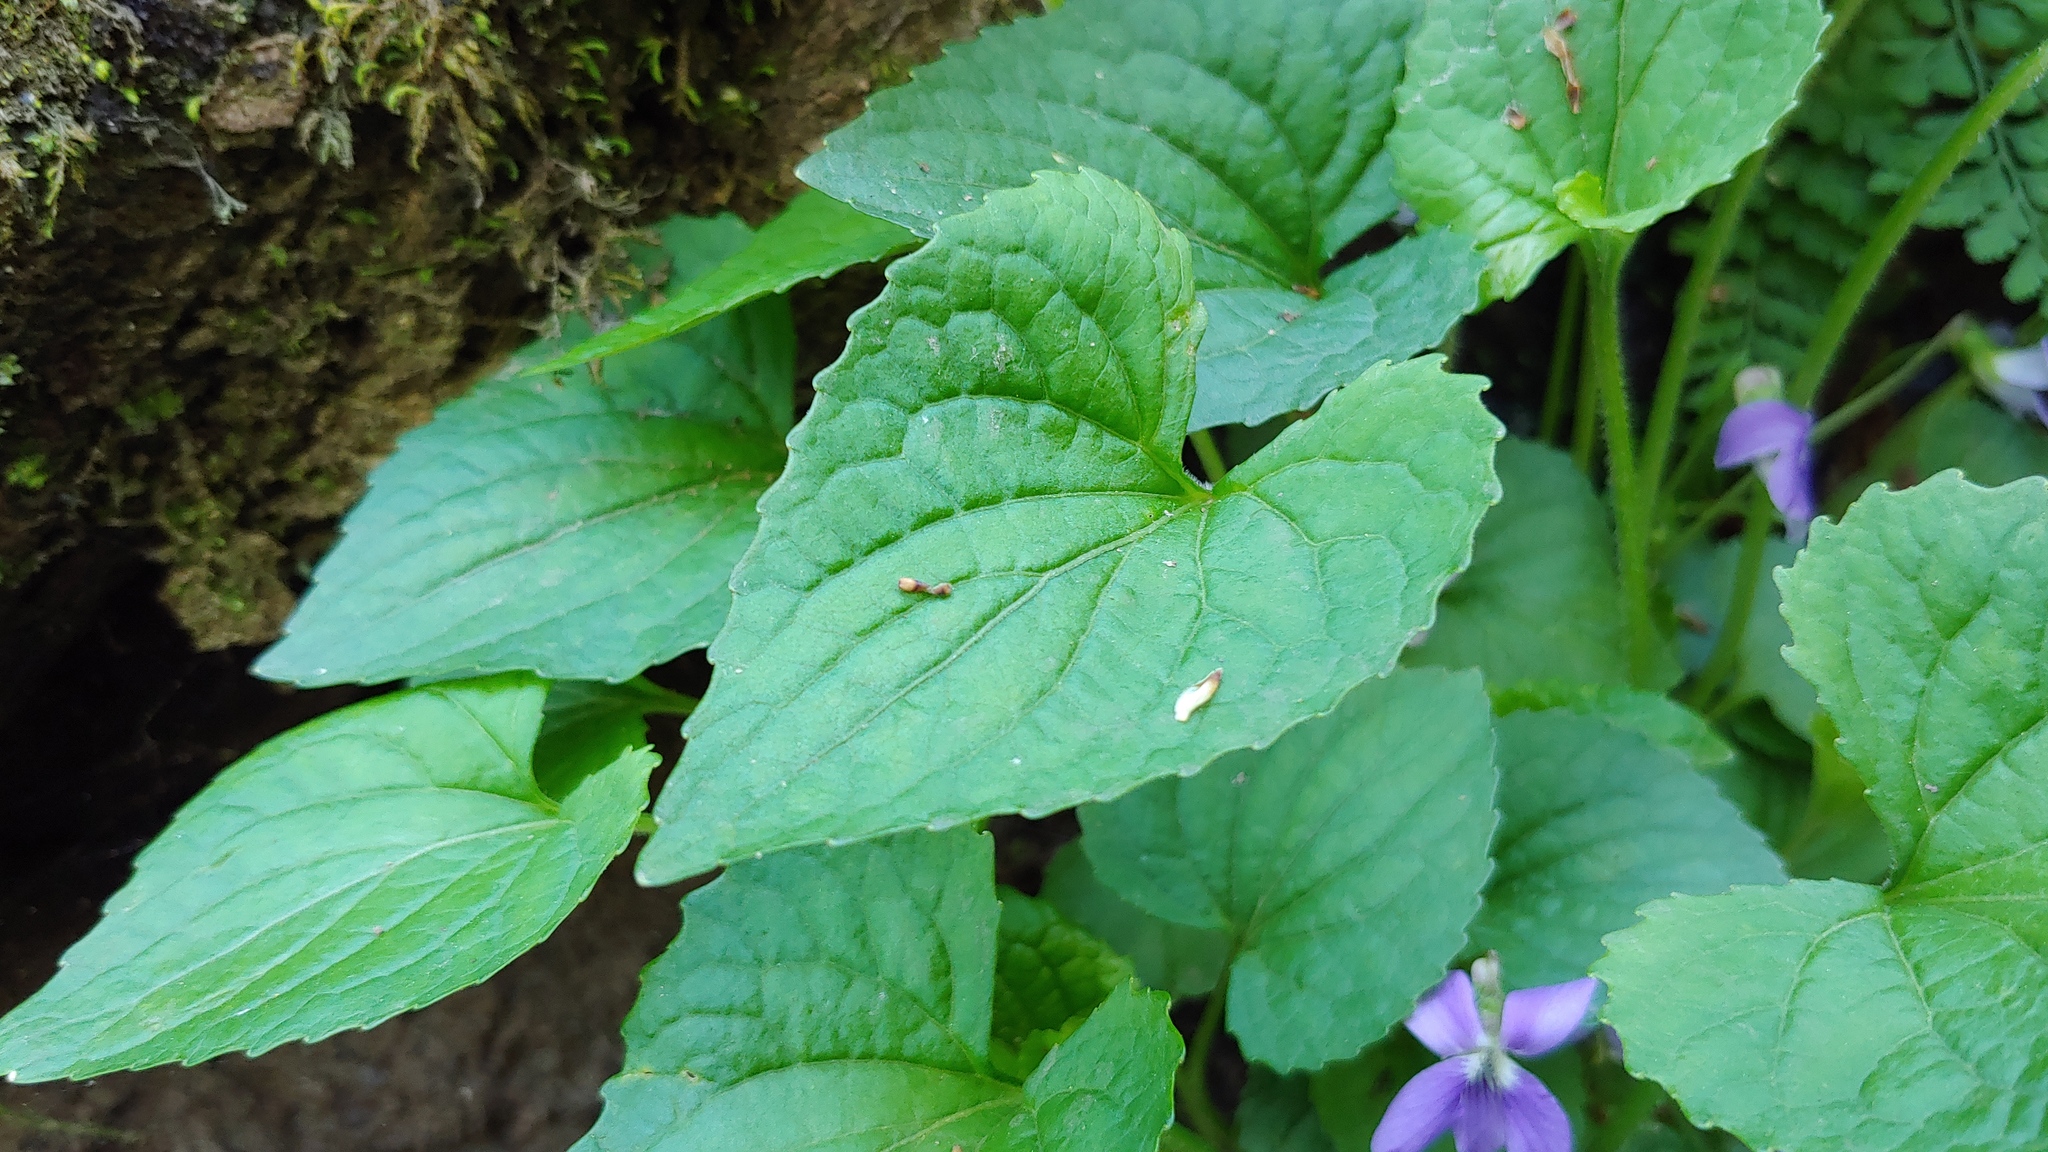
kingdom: Plantae
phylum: Tracheophyta
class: Magnoliopsida
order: Malpighiales
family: Violaceae
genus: Viola
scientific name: Viola cucullata
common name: Marsh blue violet
